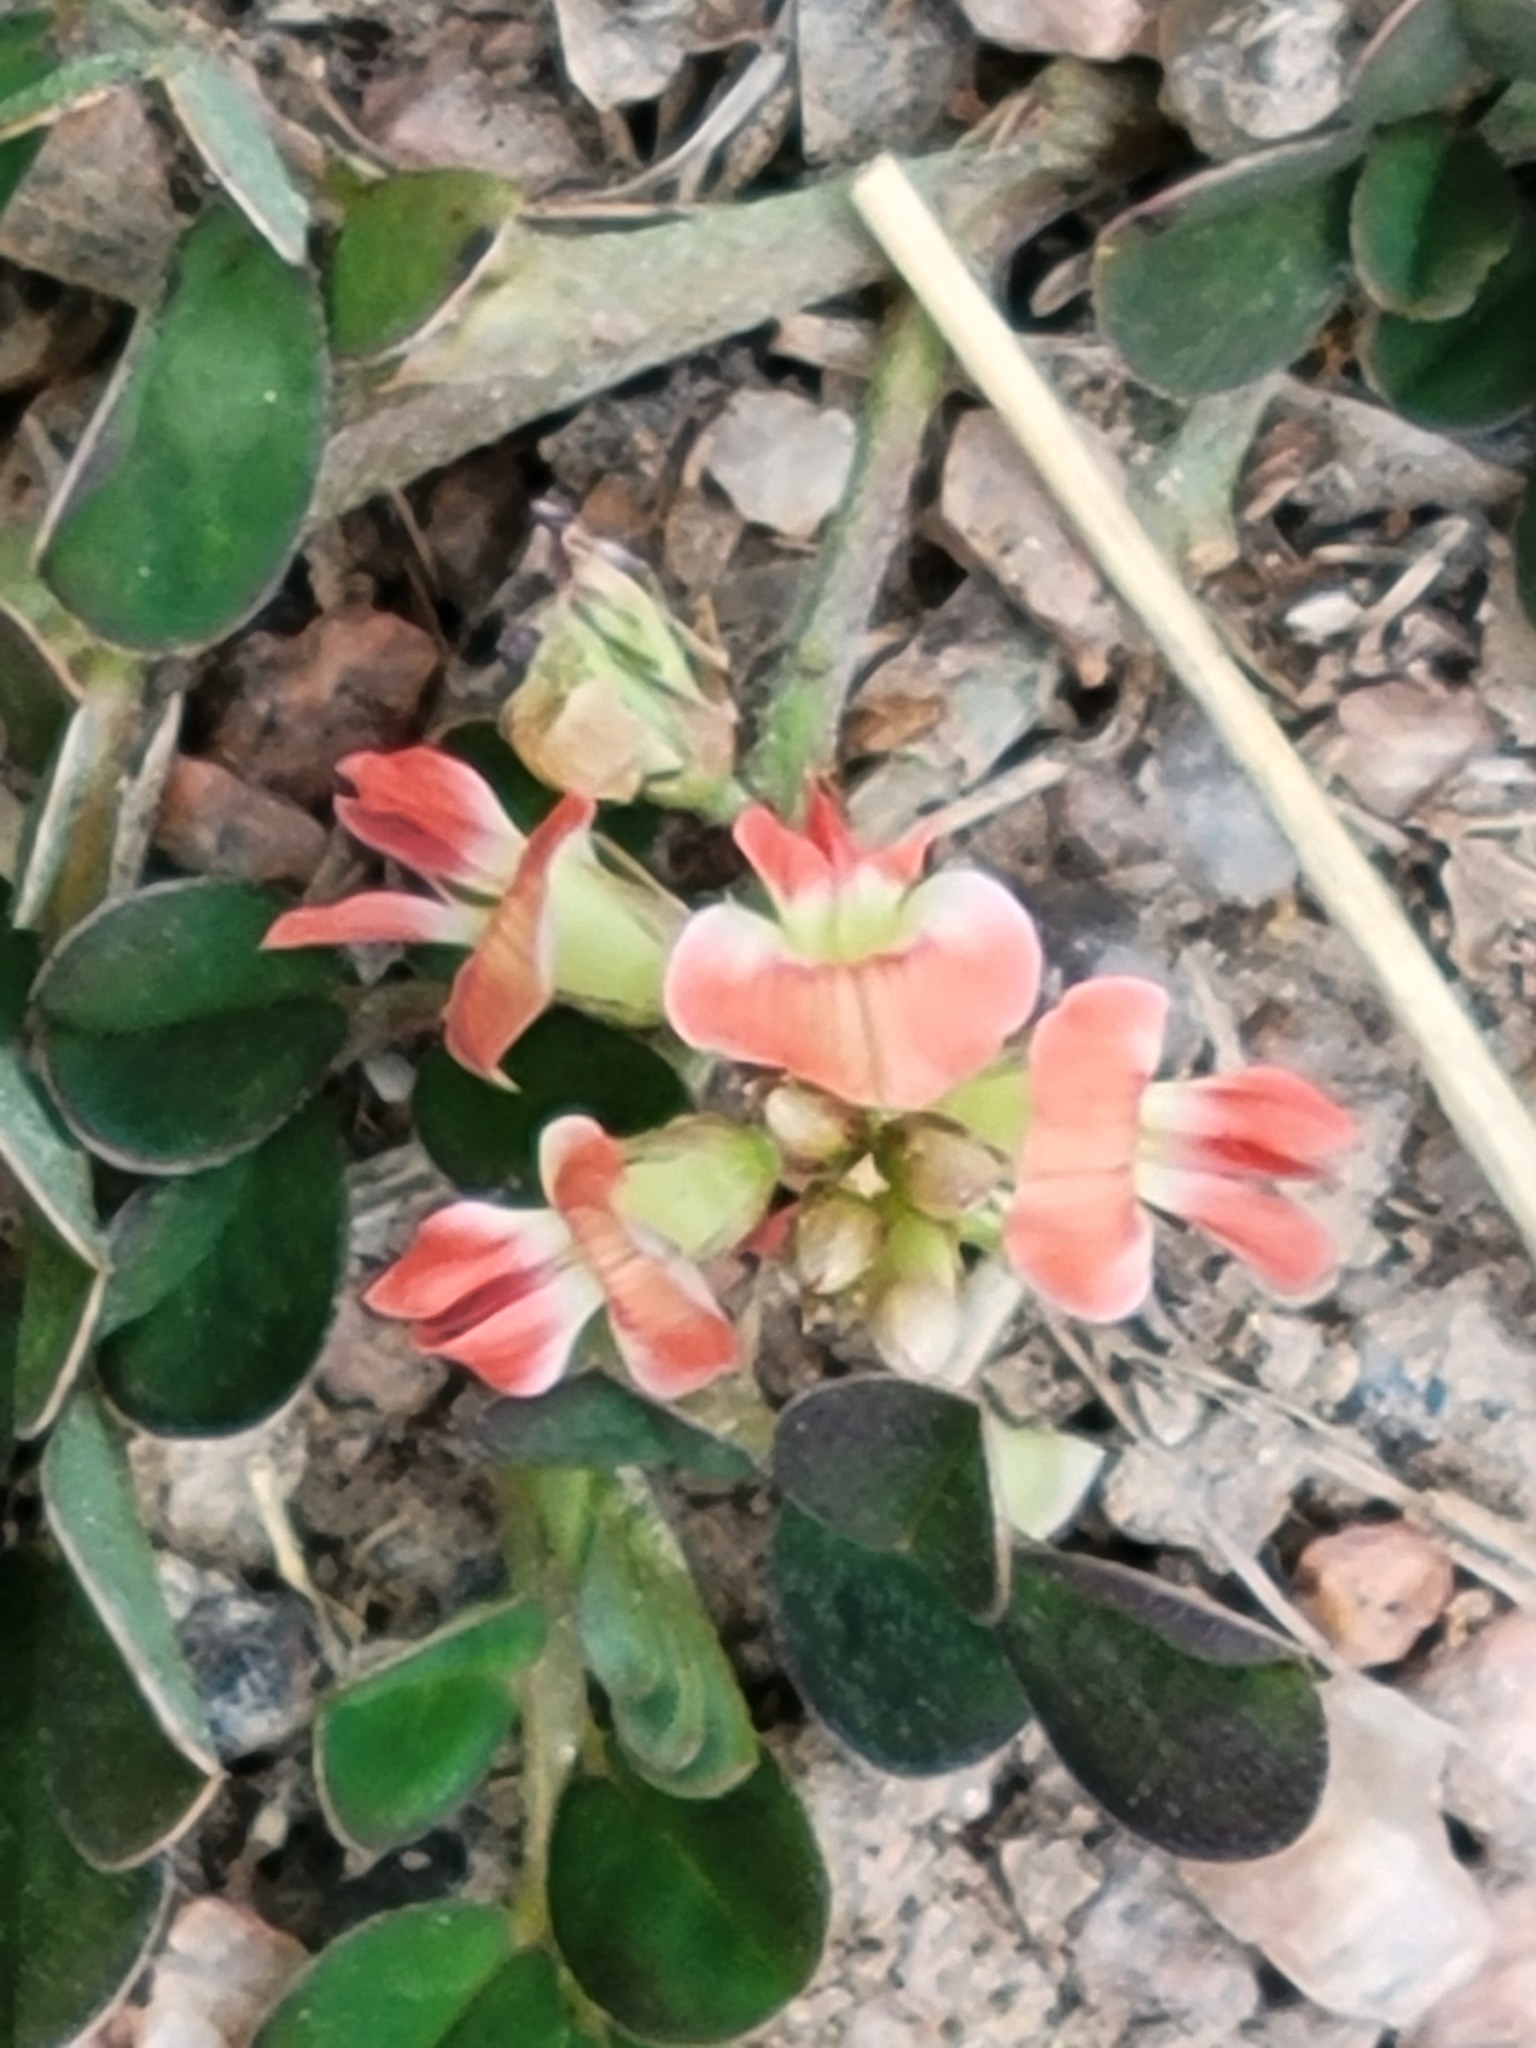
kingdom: Plantae
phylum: Tracheophyta
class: Magnoliopsida
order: Fabales
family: Fabaceae
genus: Pediomelum
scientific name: Pediomelum rhombifolium
